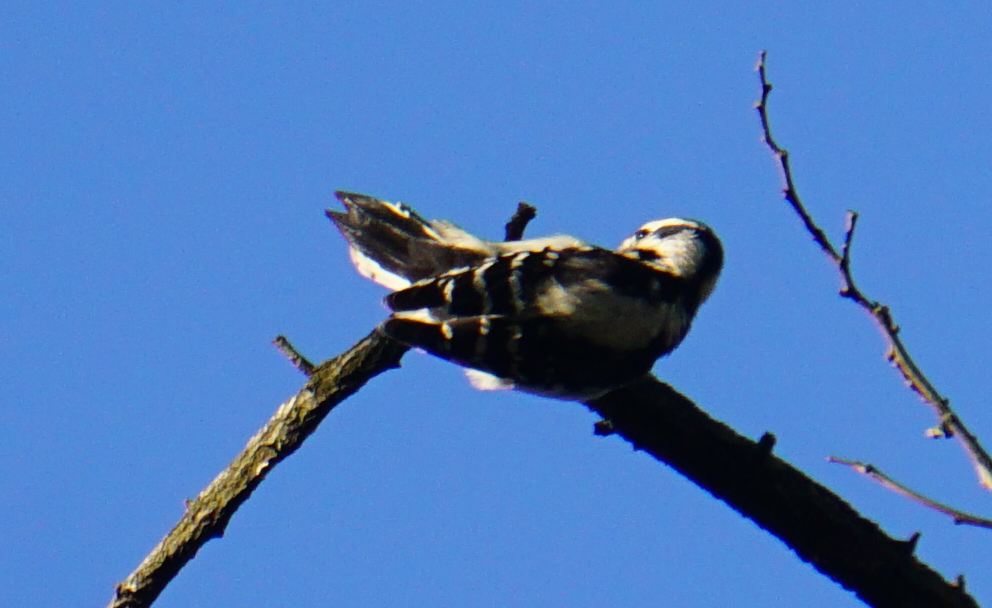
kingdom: Animalia
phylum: Chordata
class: Aves
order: Piciformes
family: Picidae
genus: Dryobates
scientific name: Dryobates pubescens
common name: Downy woodpecker
